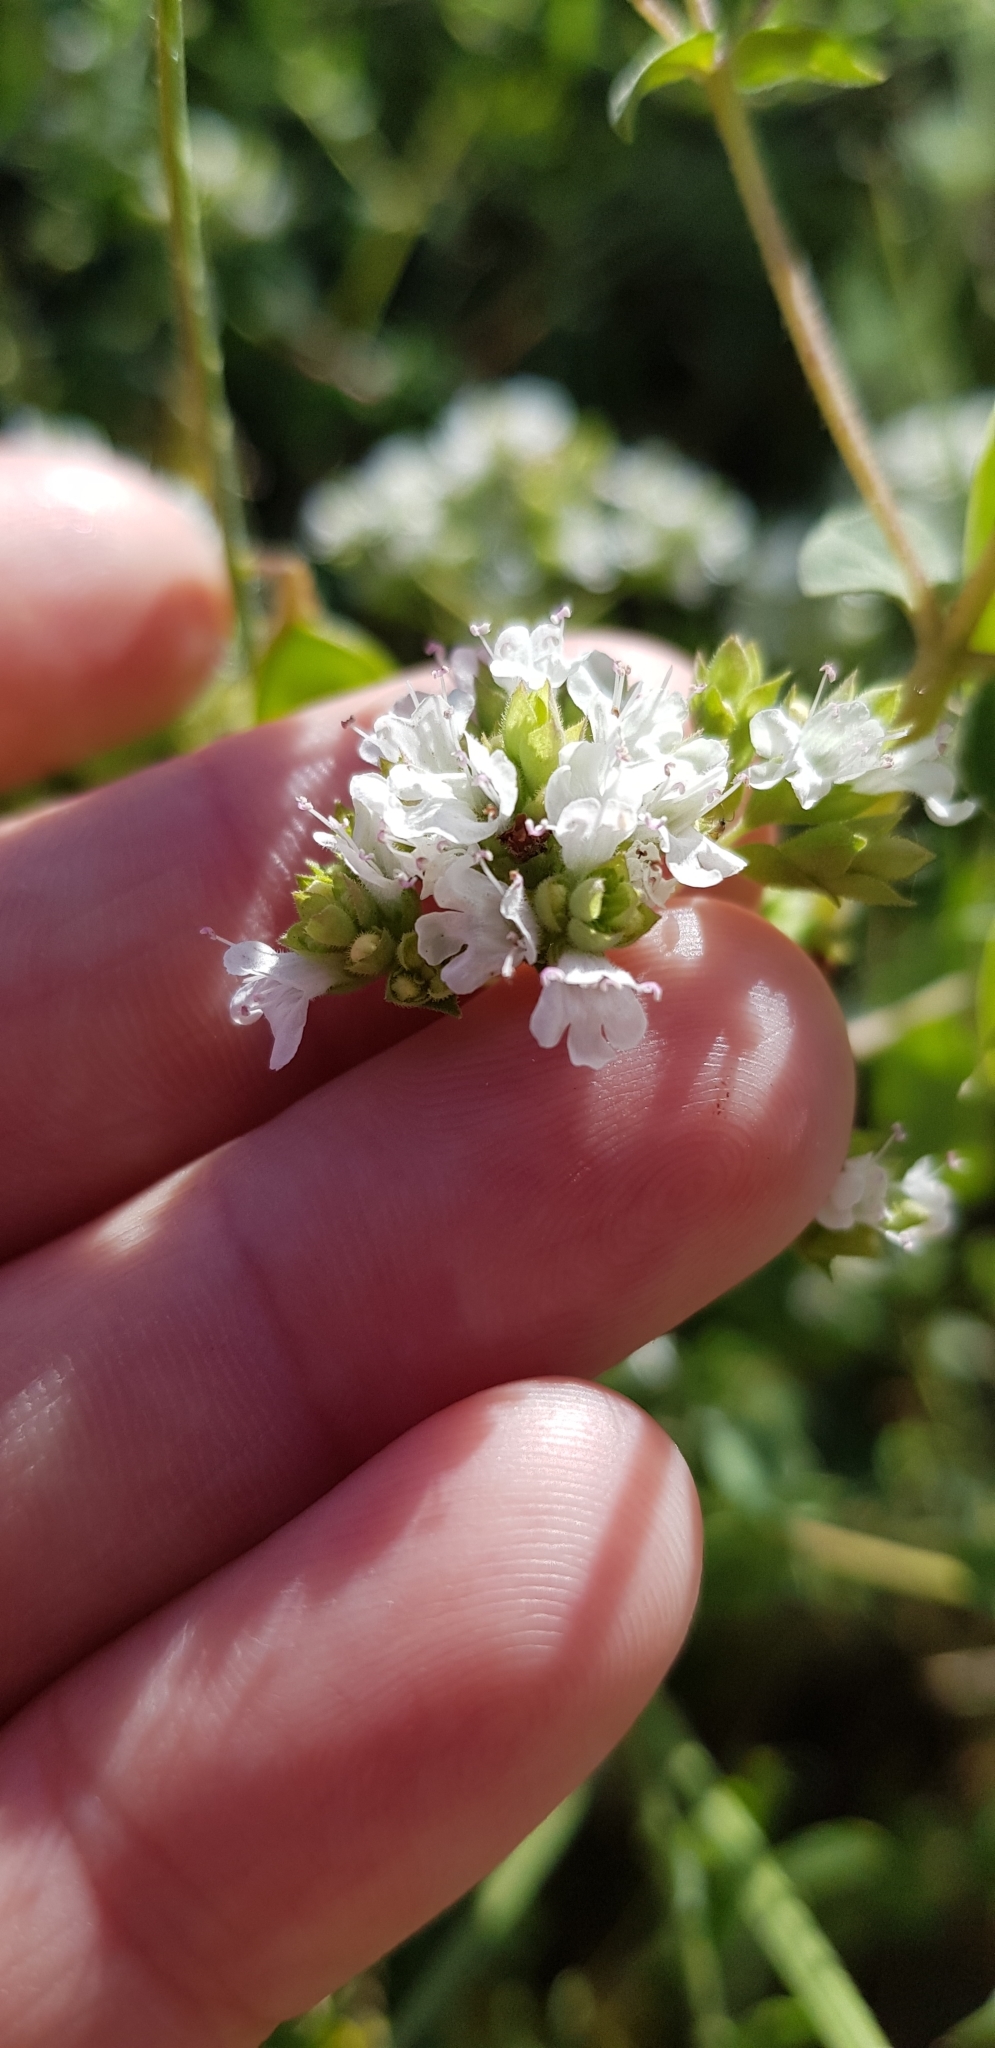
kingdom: Plantae
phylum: Tracheophyta
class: Magnoliopsida
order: Lamiales
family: Lamiaceae
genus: Origanum
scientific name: Origanum vulgare
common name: Wild marjoram
